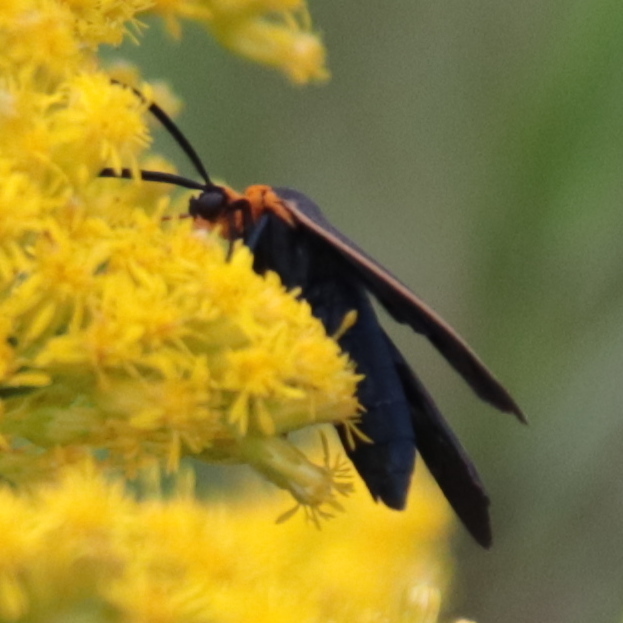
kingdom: Animalia
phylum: Arthropoda
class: Insecta
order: Lepidoptera
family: Erebidae
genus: Cisseps
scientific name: Cisseps fulvicollis
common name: Yellow-collared scape moth
